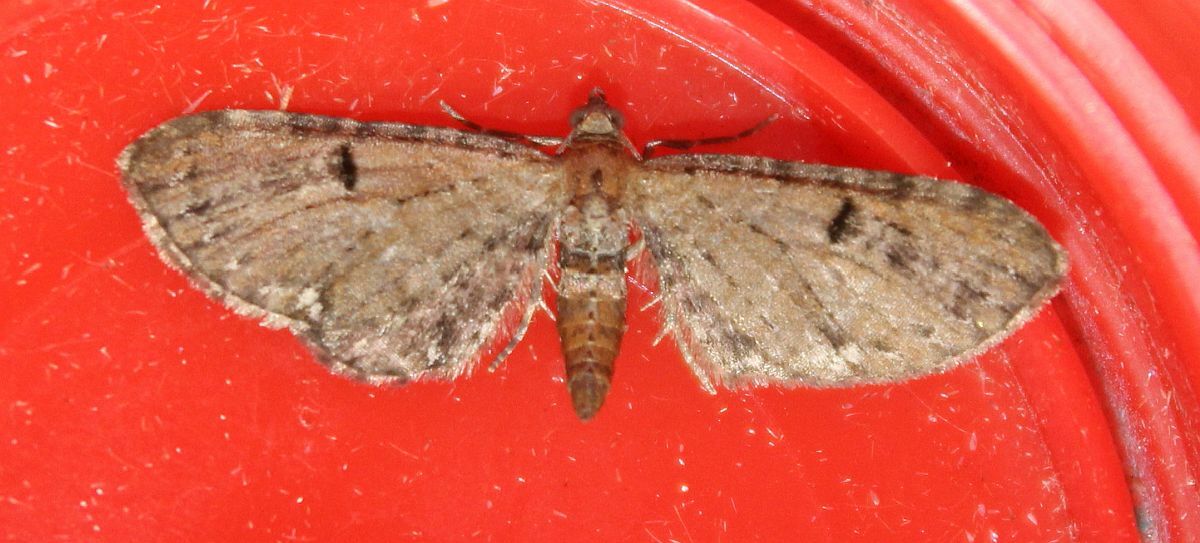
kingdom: Animalia
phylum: Arthropoda
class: Insecta
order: Lepidoptera
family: Geometridae
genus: Eupithecia
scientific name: Eupithecia assimilata
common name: Currant pug
